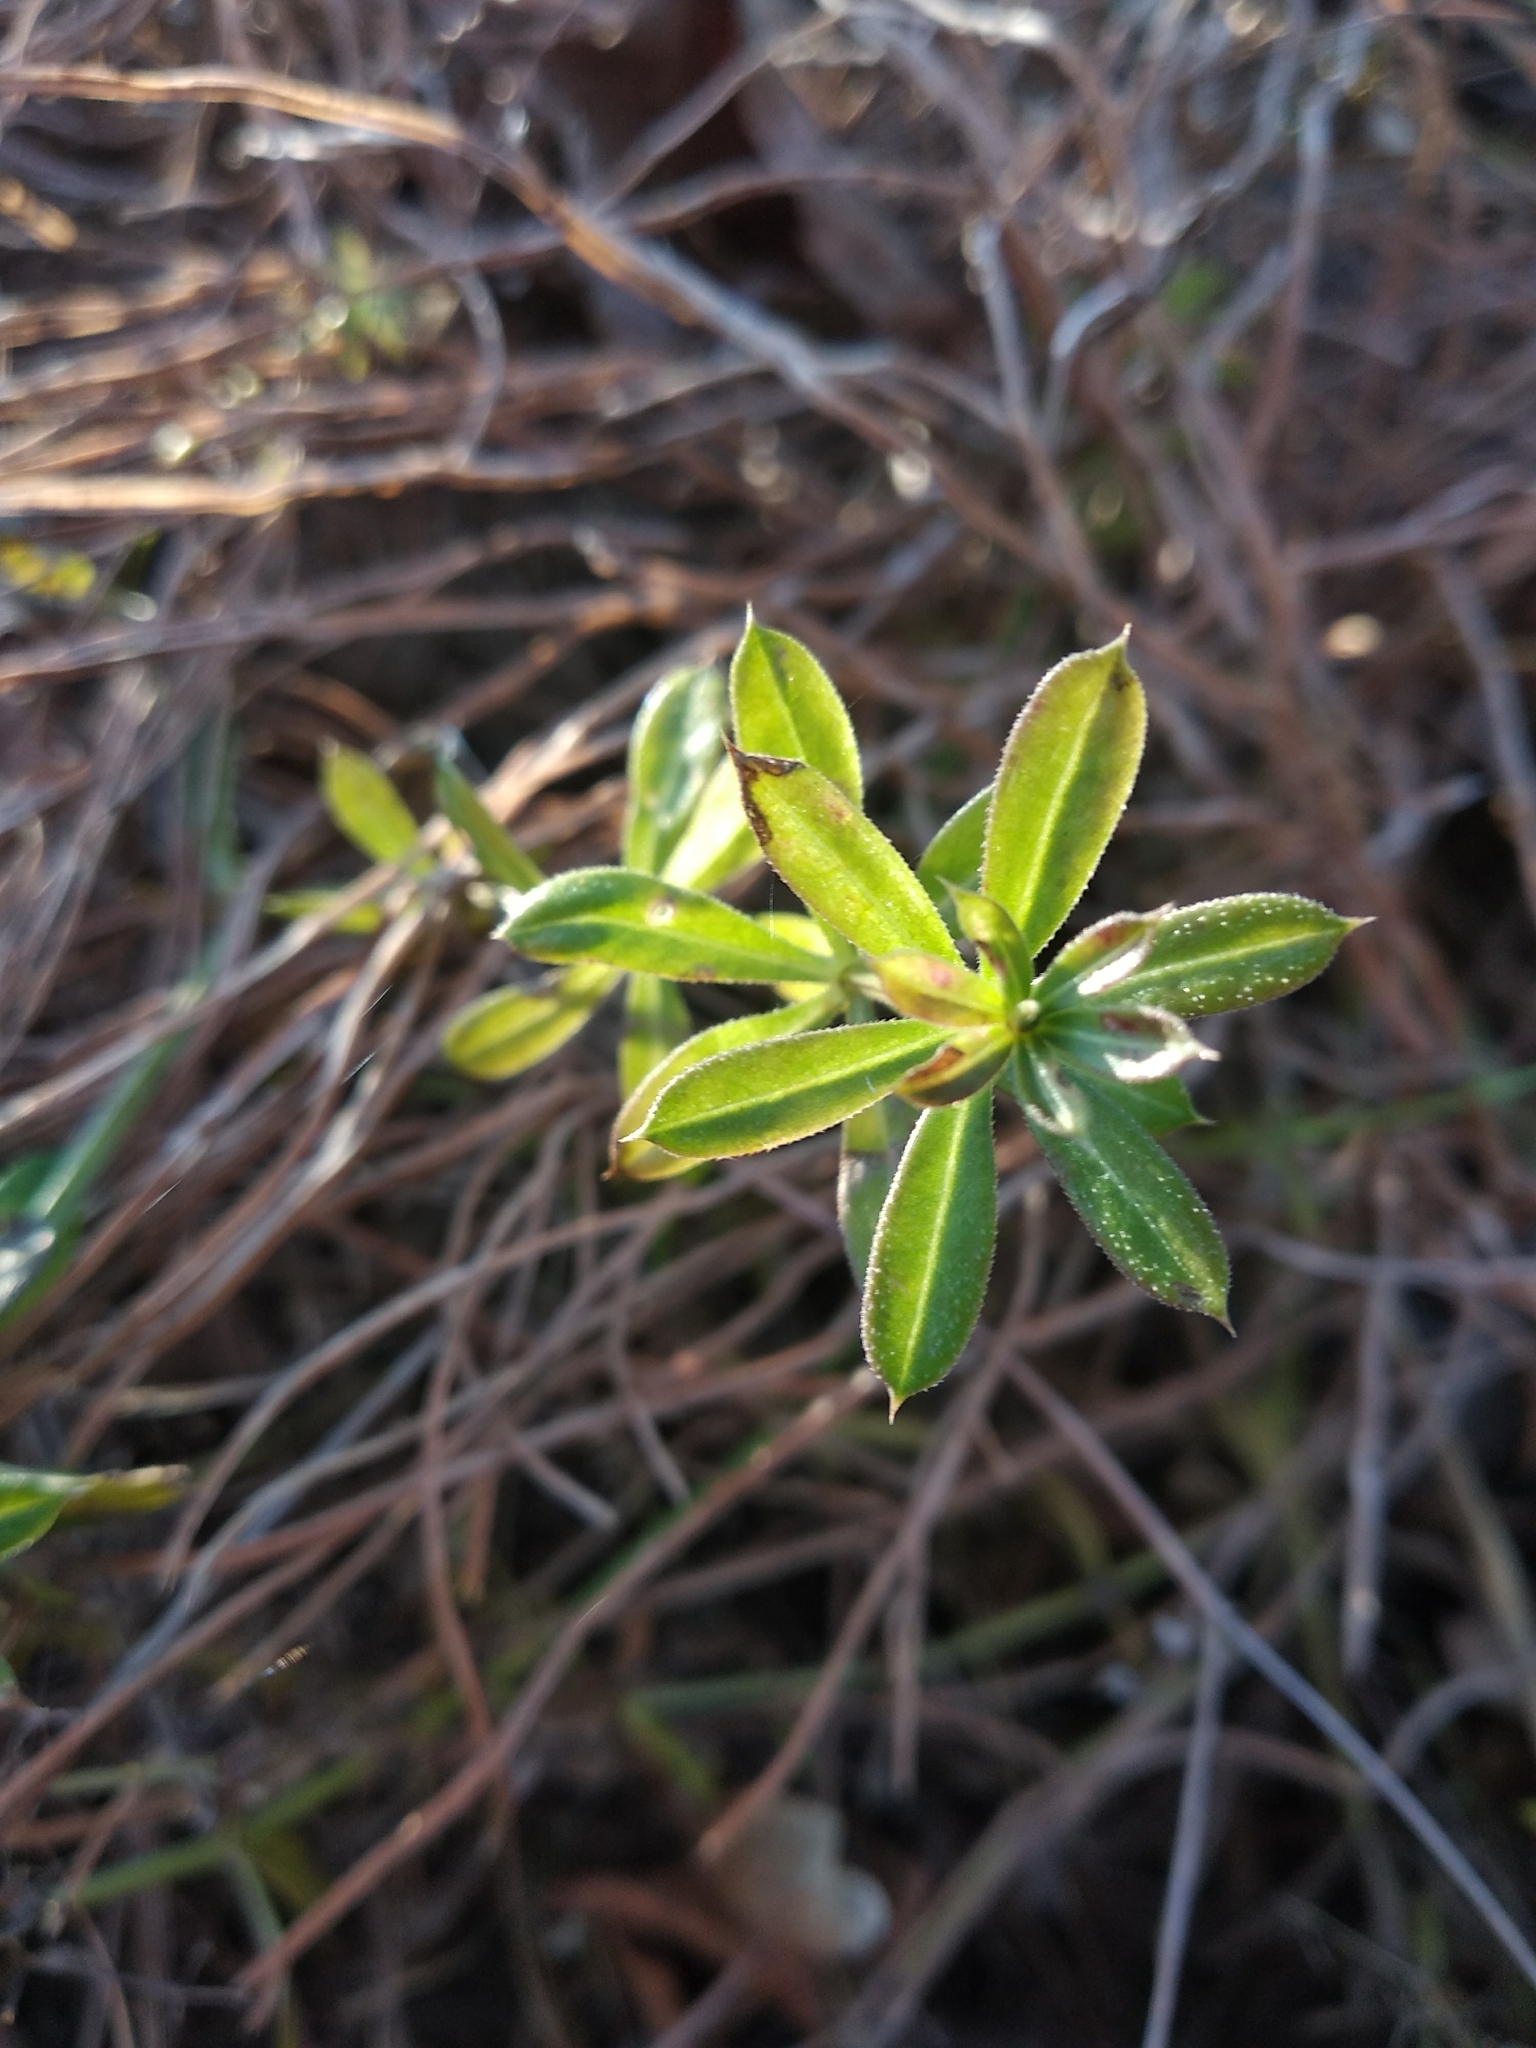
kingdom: Plantae
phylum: Tracheophyta
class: Magnoliopsida
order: Gentianales
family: Rubiaceae
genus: Galium
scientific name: Galium rivale
